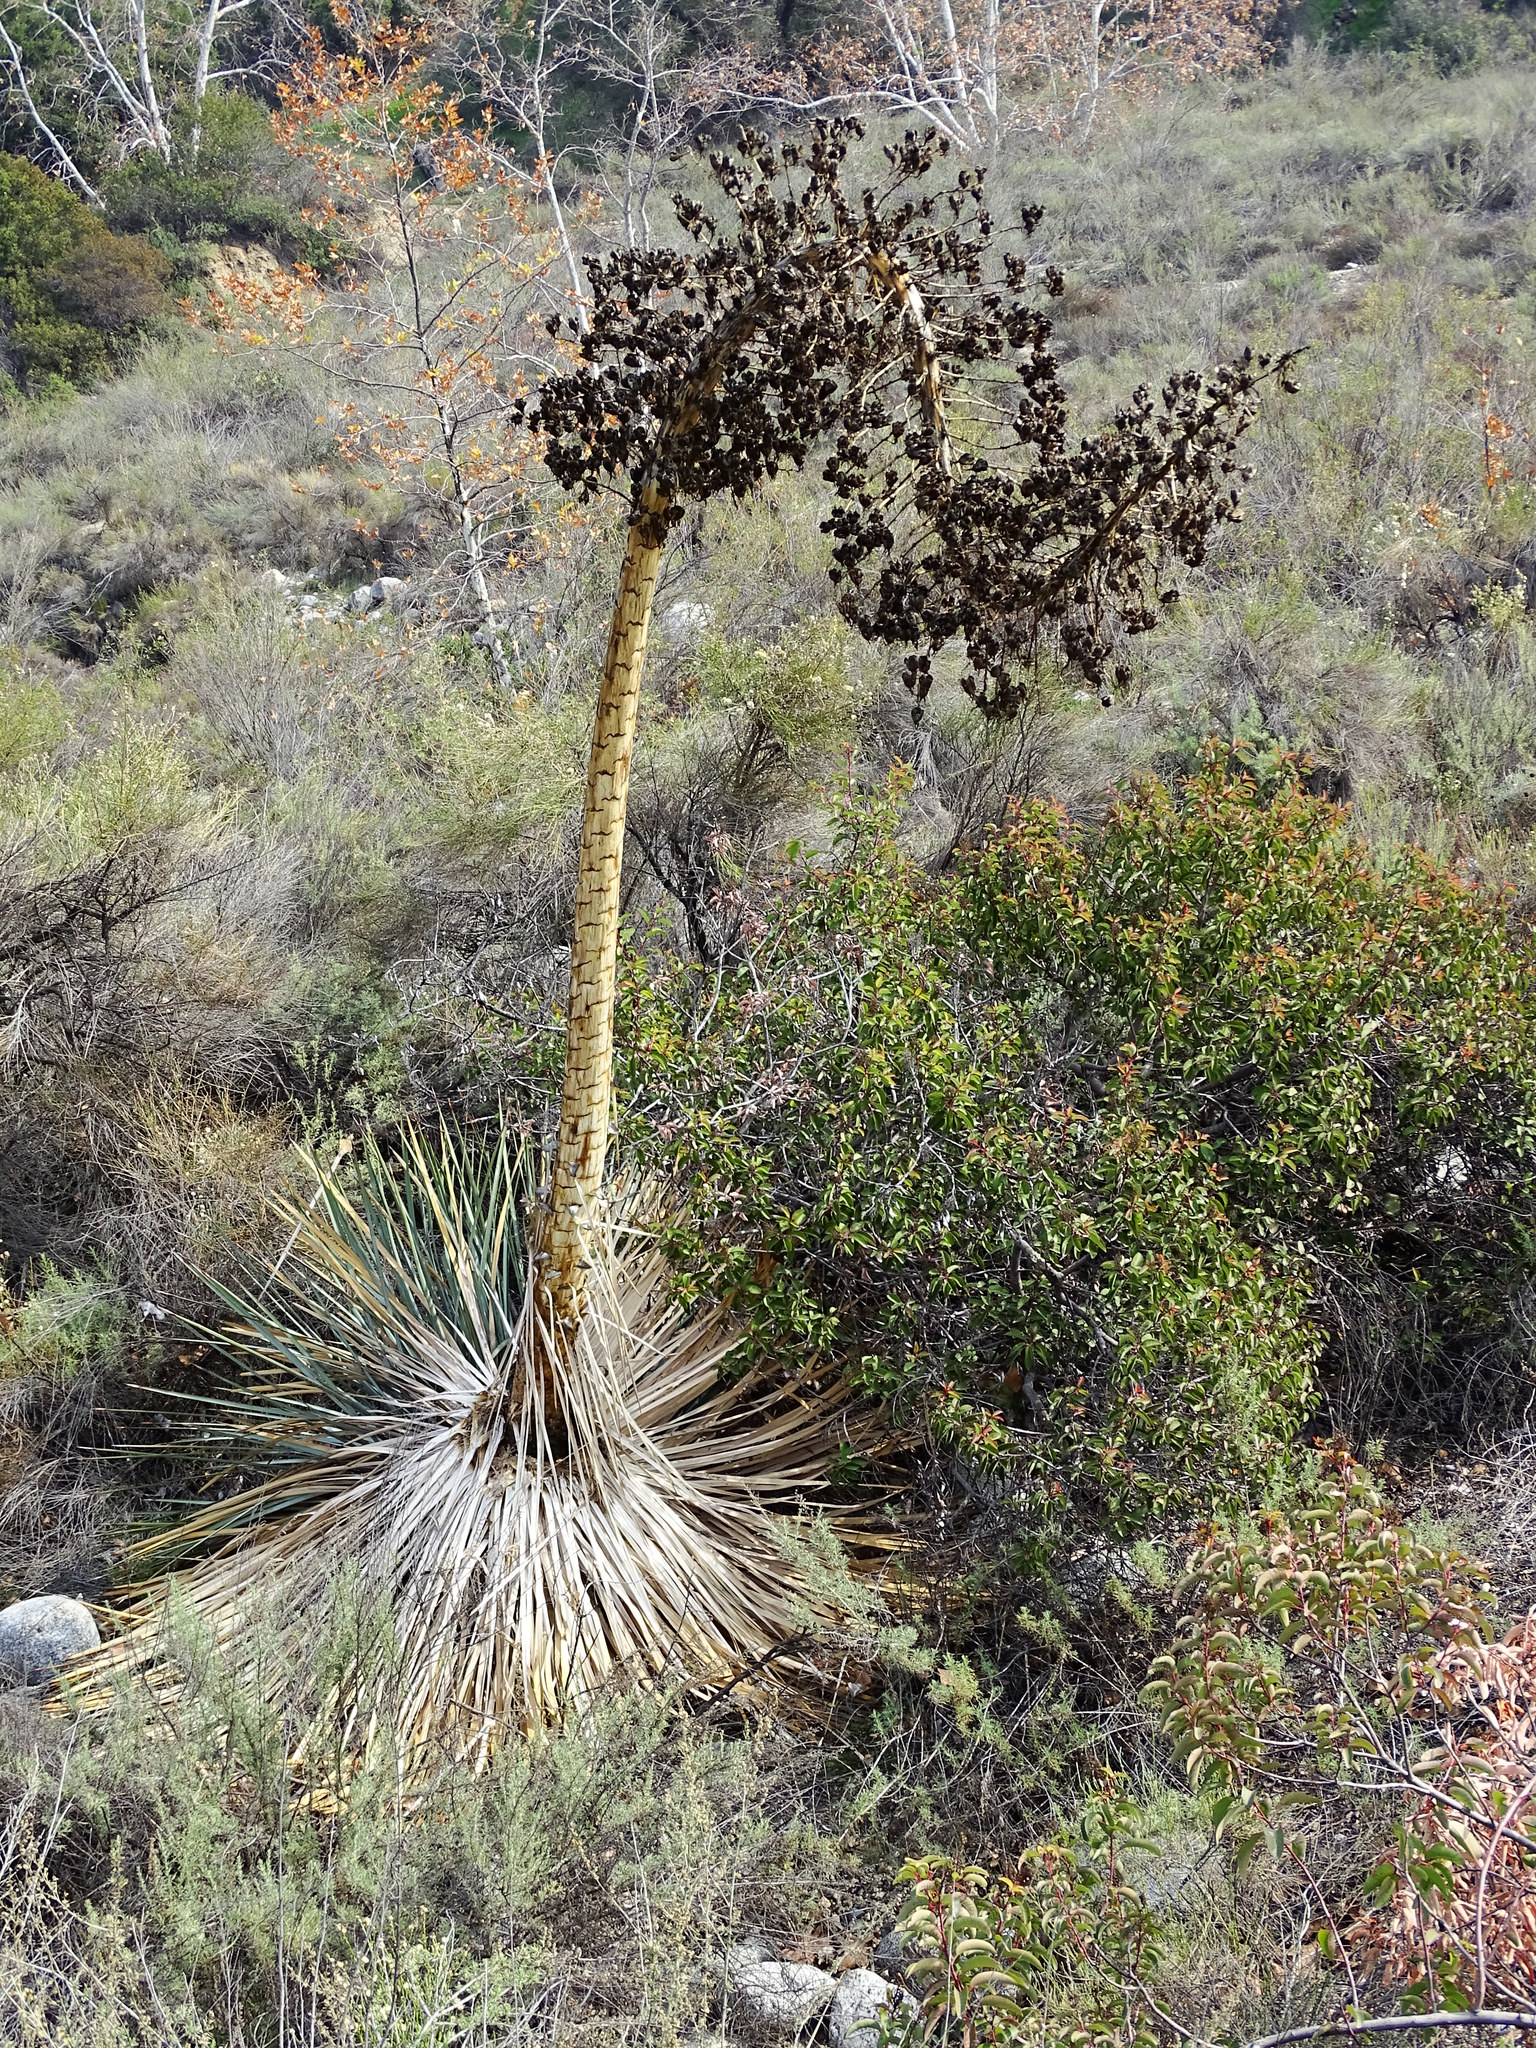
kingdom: Plantae
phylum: Tracheophyta
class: Liliopsida
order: Asparagales
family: Asparagaceae
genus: Hesperoyucca
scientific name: Hesperoyucca whipplei
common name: Our lord's-candle
